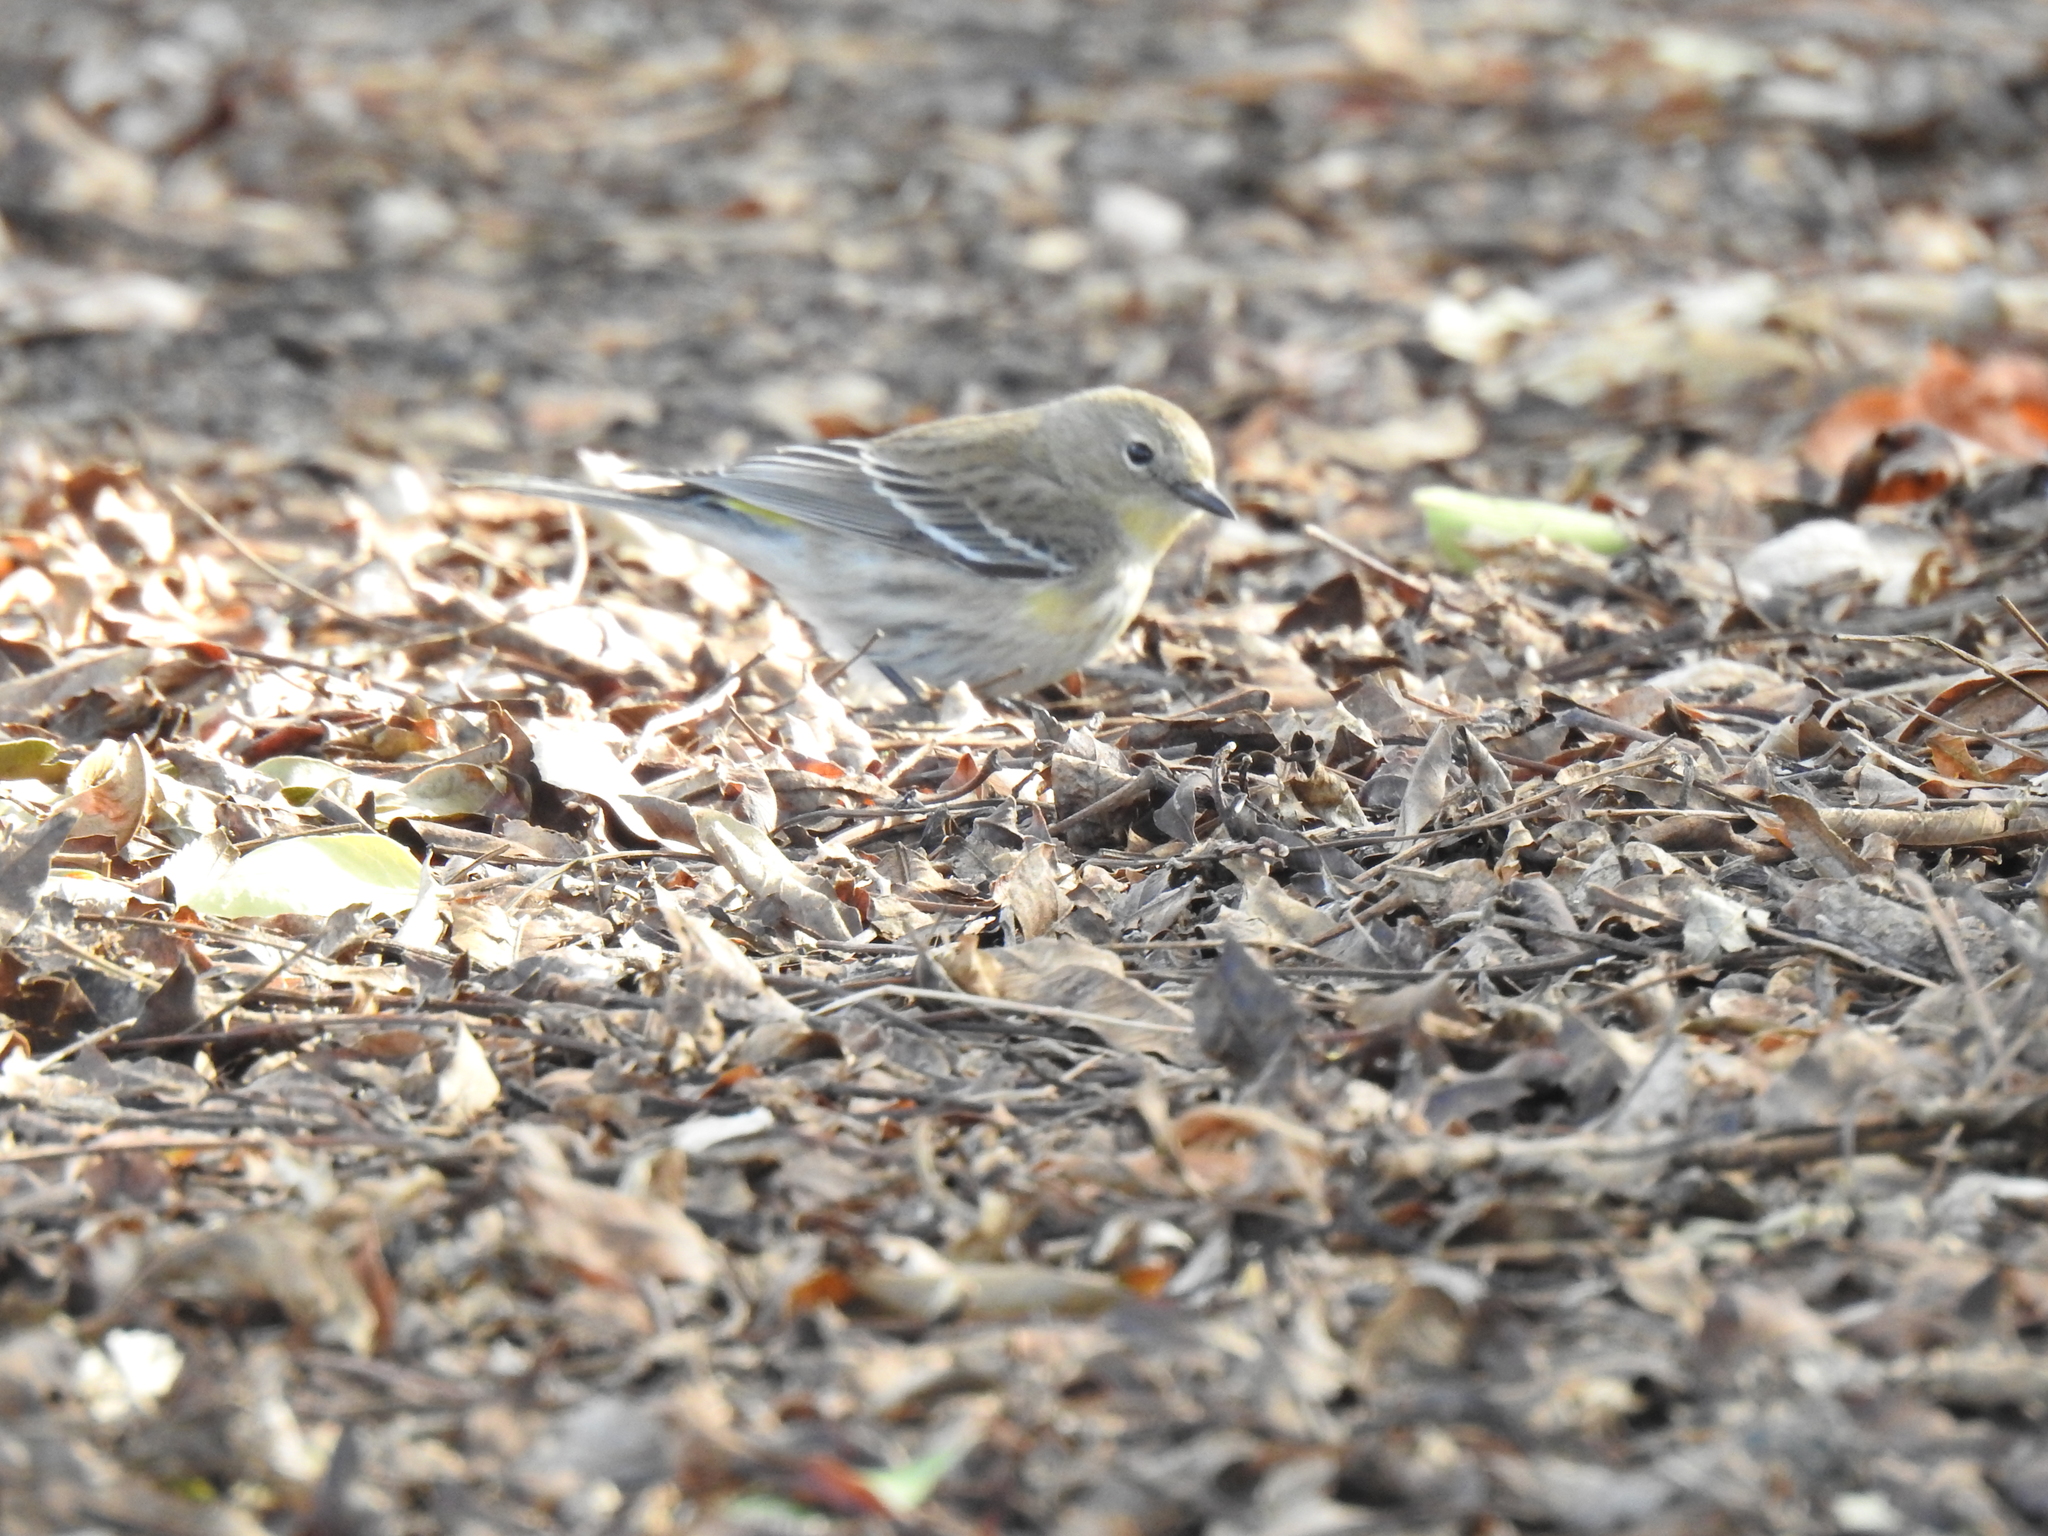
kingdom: Animalia
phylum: Chordata
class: Aves
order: Passeriformes
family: Parulidae
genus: Setophaga
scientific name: Setophaga coronata
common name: Myrtle warbler
